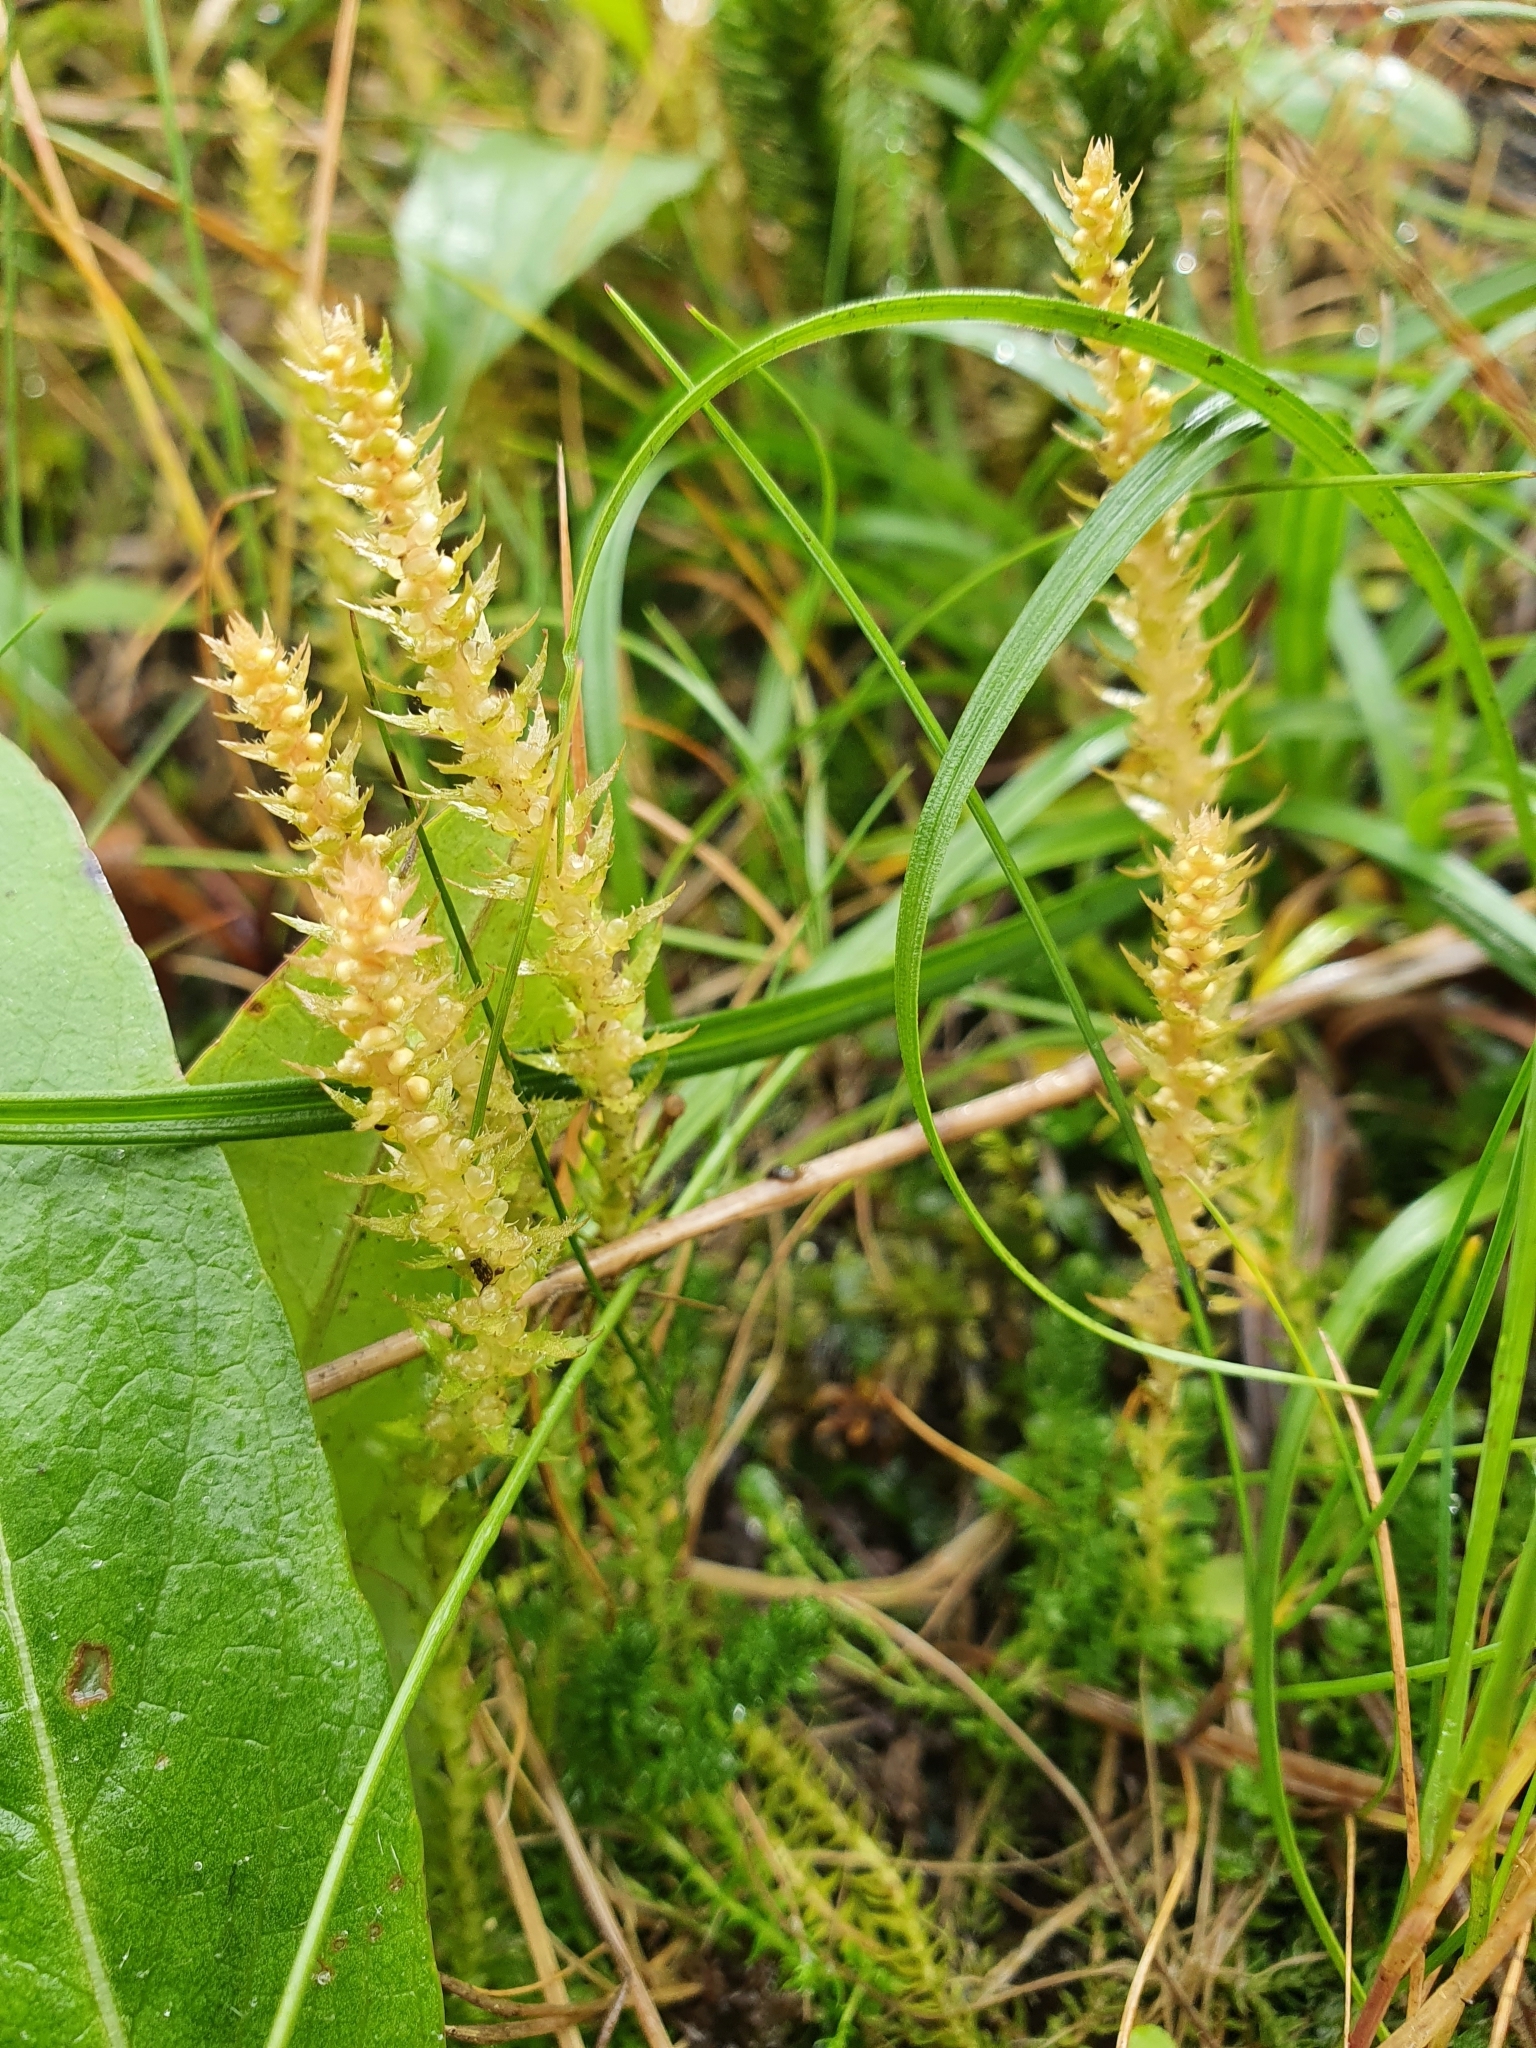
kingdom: Plantae
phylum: Tracheophyta
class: Lycopodiopsida
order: Selaginellales
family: Selaginellaceae
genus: Selaginella
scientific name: Selaginella selaginoides
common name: Prickly mountain-moss
